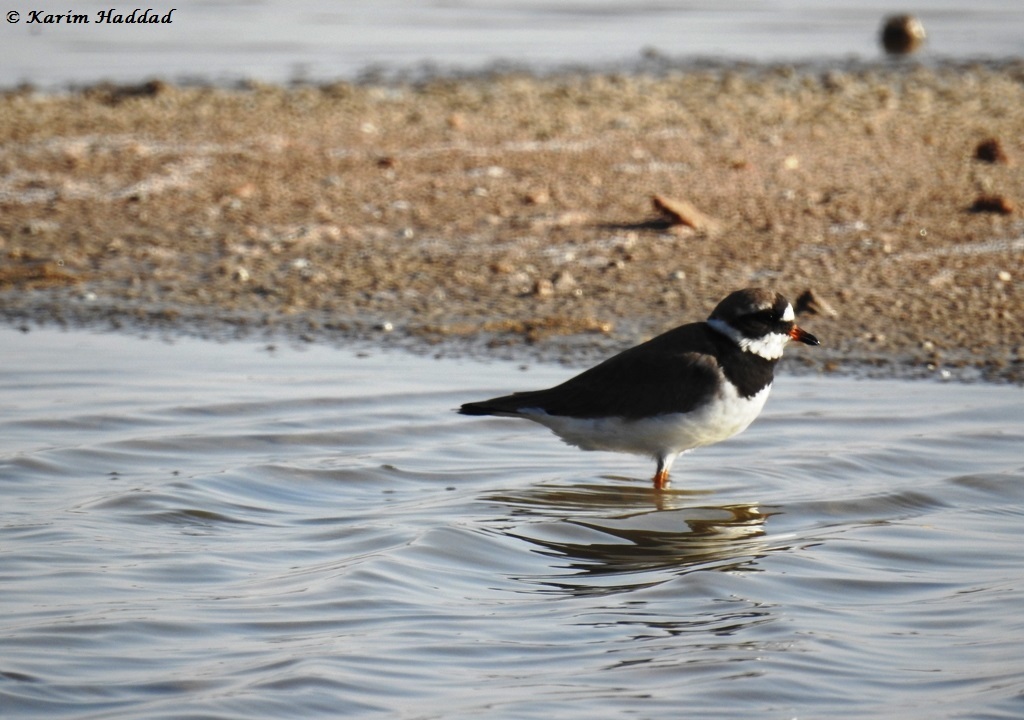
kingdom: Animalia
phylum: Chordata
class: Aves
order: Charadriiformes
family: Charadriidae
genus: Charadrius
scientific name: Charadrius hiaticula
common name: Common ringed plover
